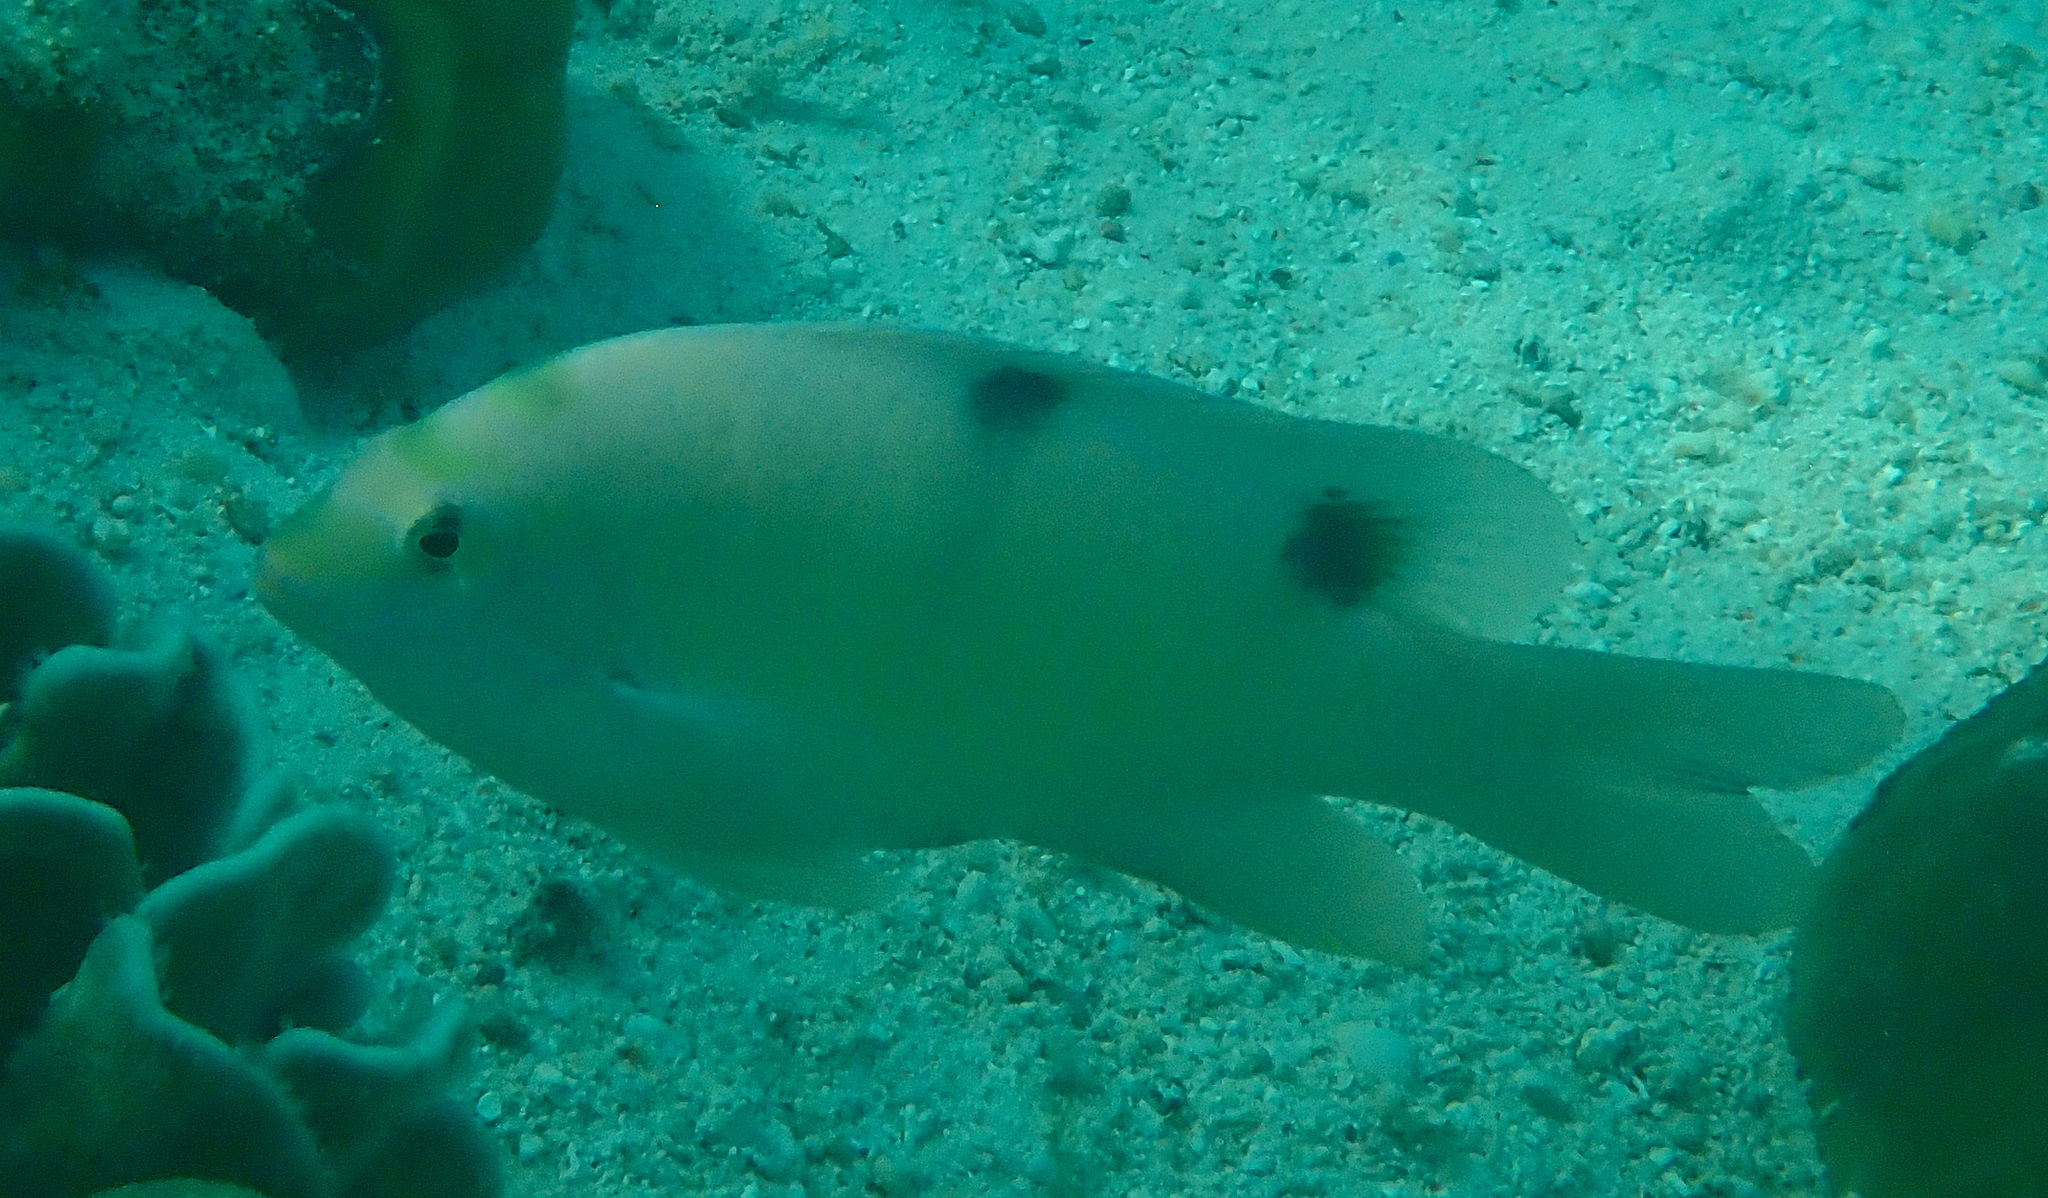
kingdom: Animalia
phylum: Chordata
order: Perciformes
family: Pomacentridae
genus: Dischistodus
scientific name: Dischistodus perspicillatus
